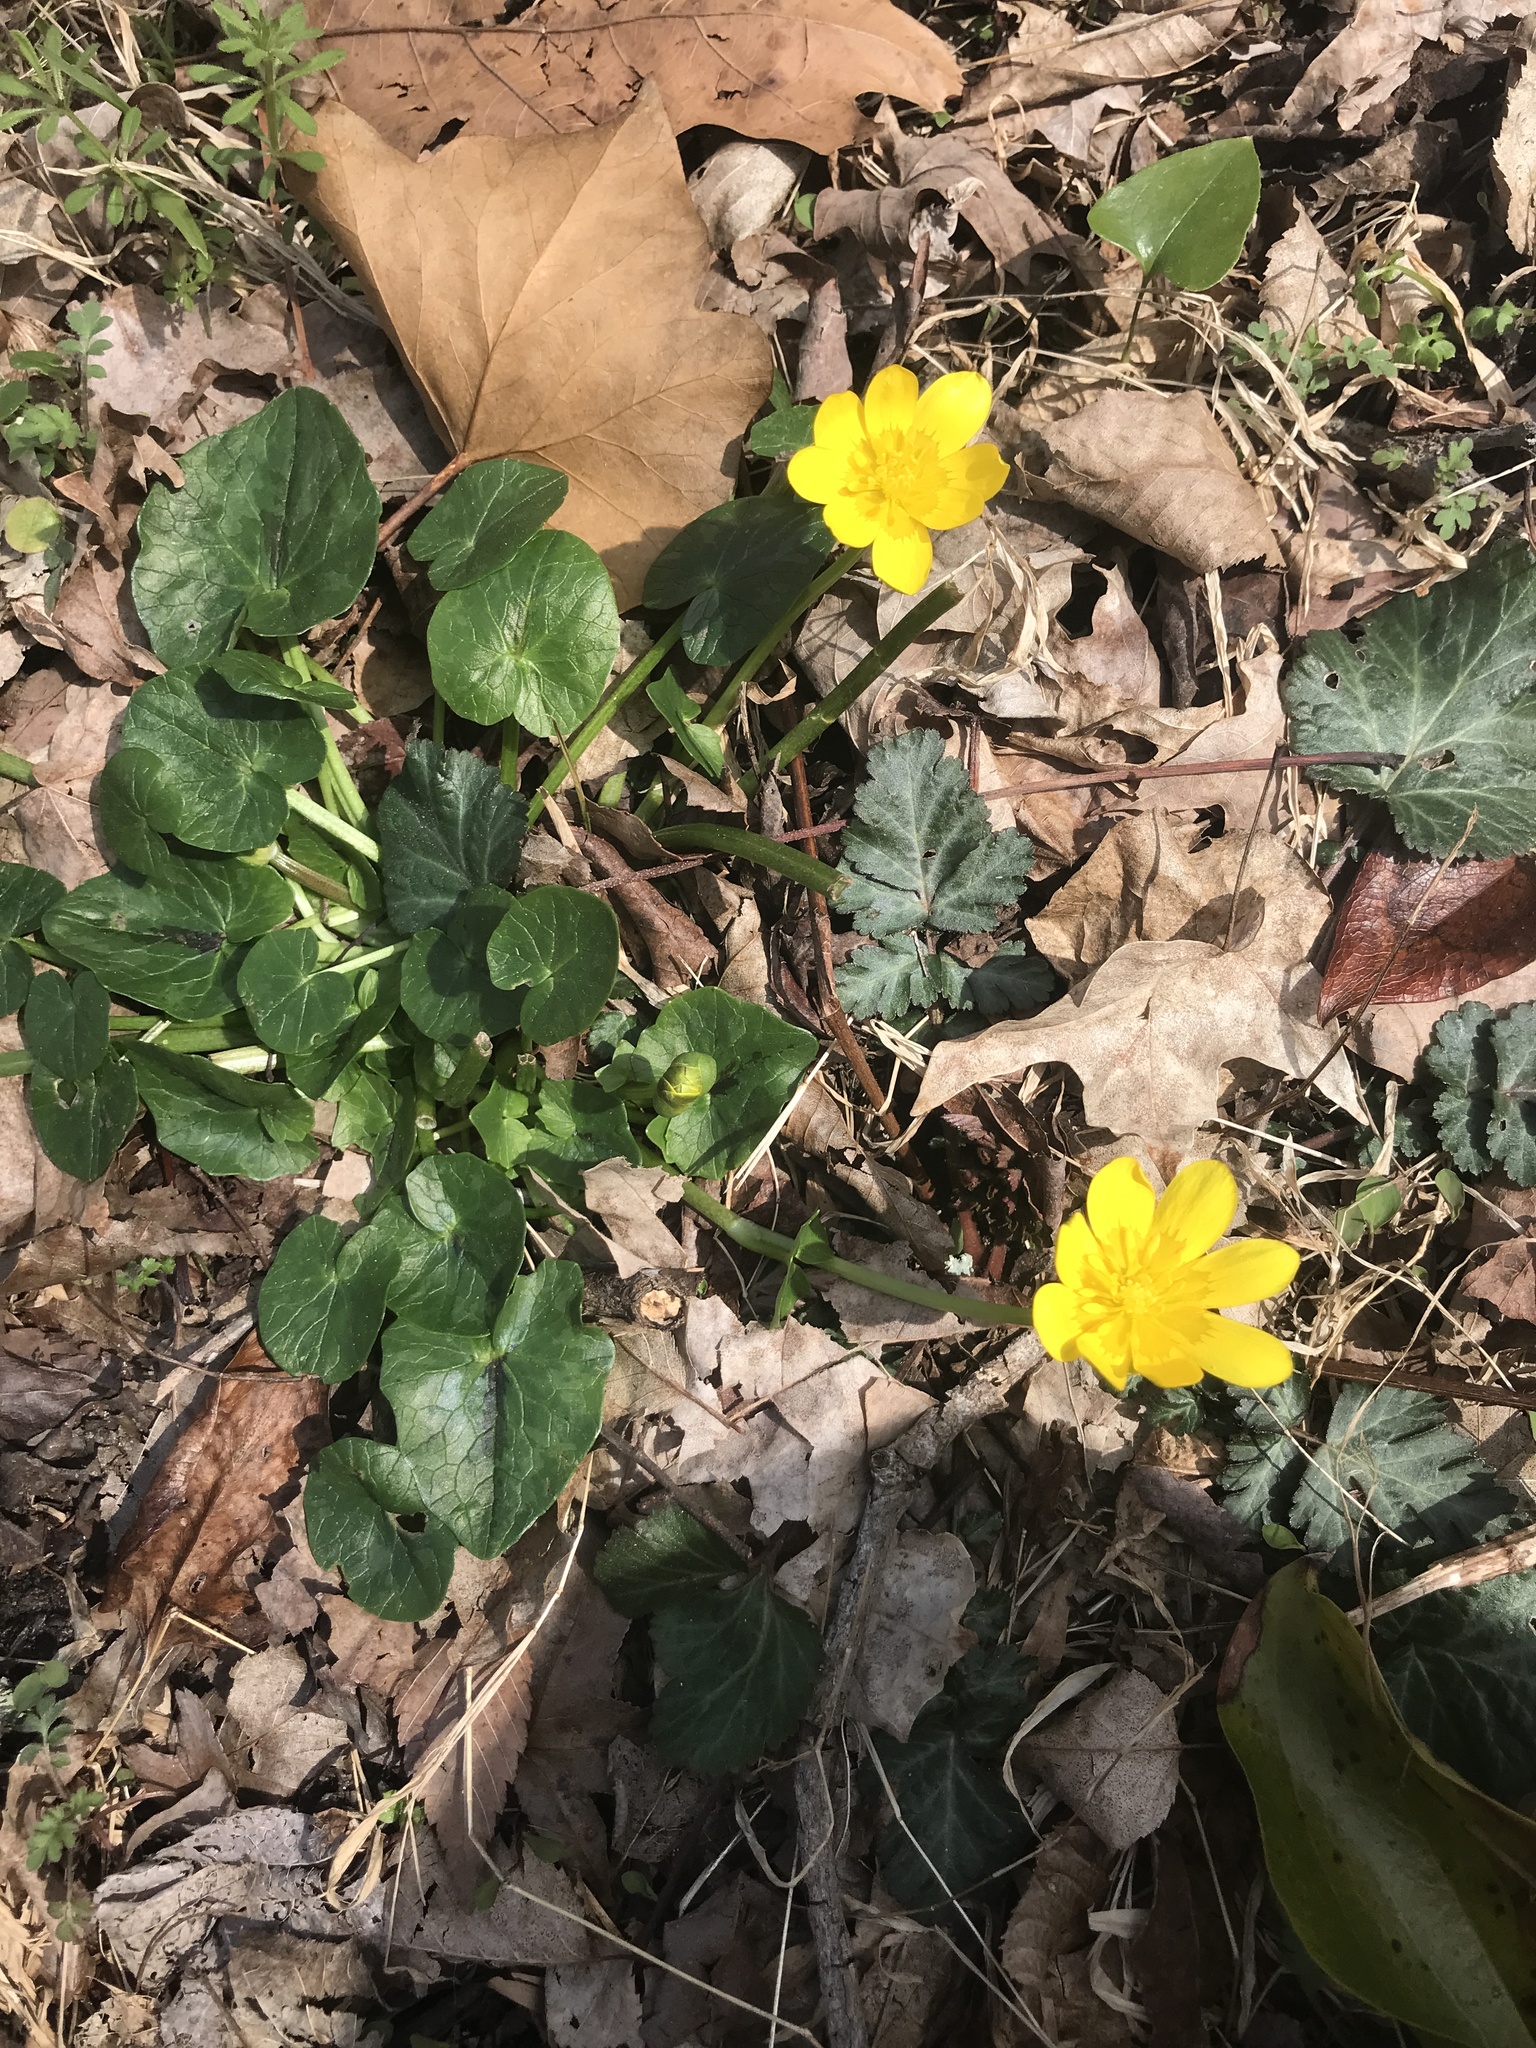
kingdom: Plantae
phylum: Tracheophyta
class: Magnoliopsida
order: Ranunculales
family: Ranunculaceae
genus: Ficaria
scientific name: Ficaria verna
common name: Lesser celandine
